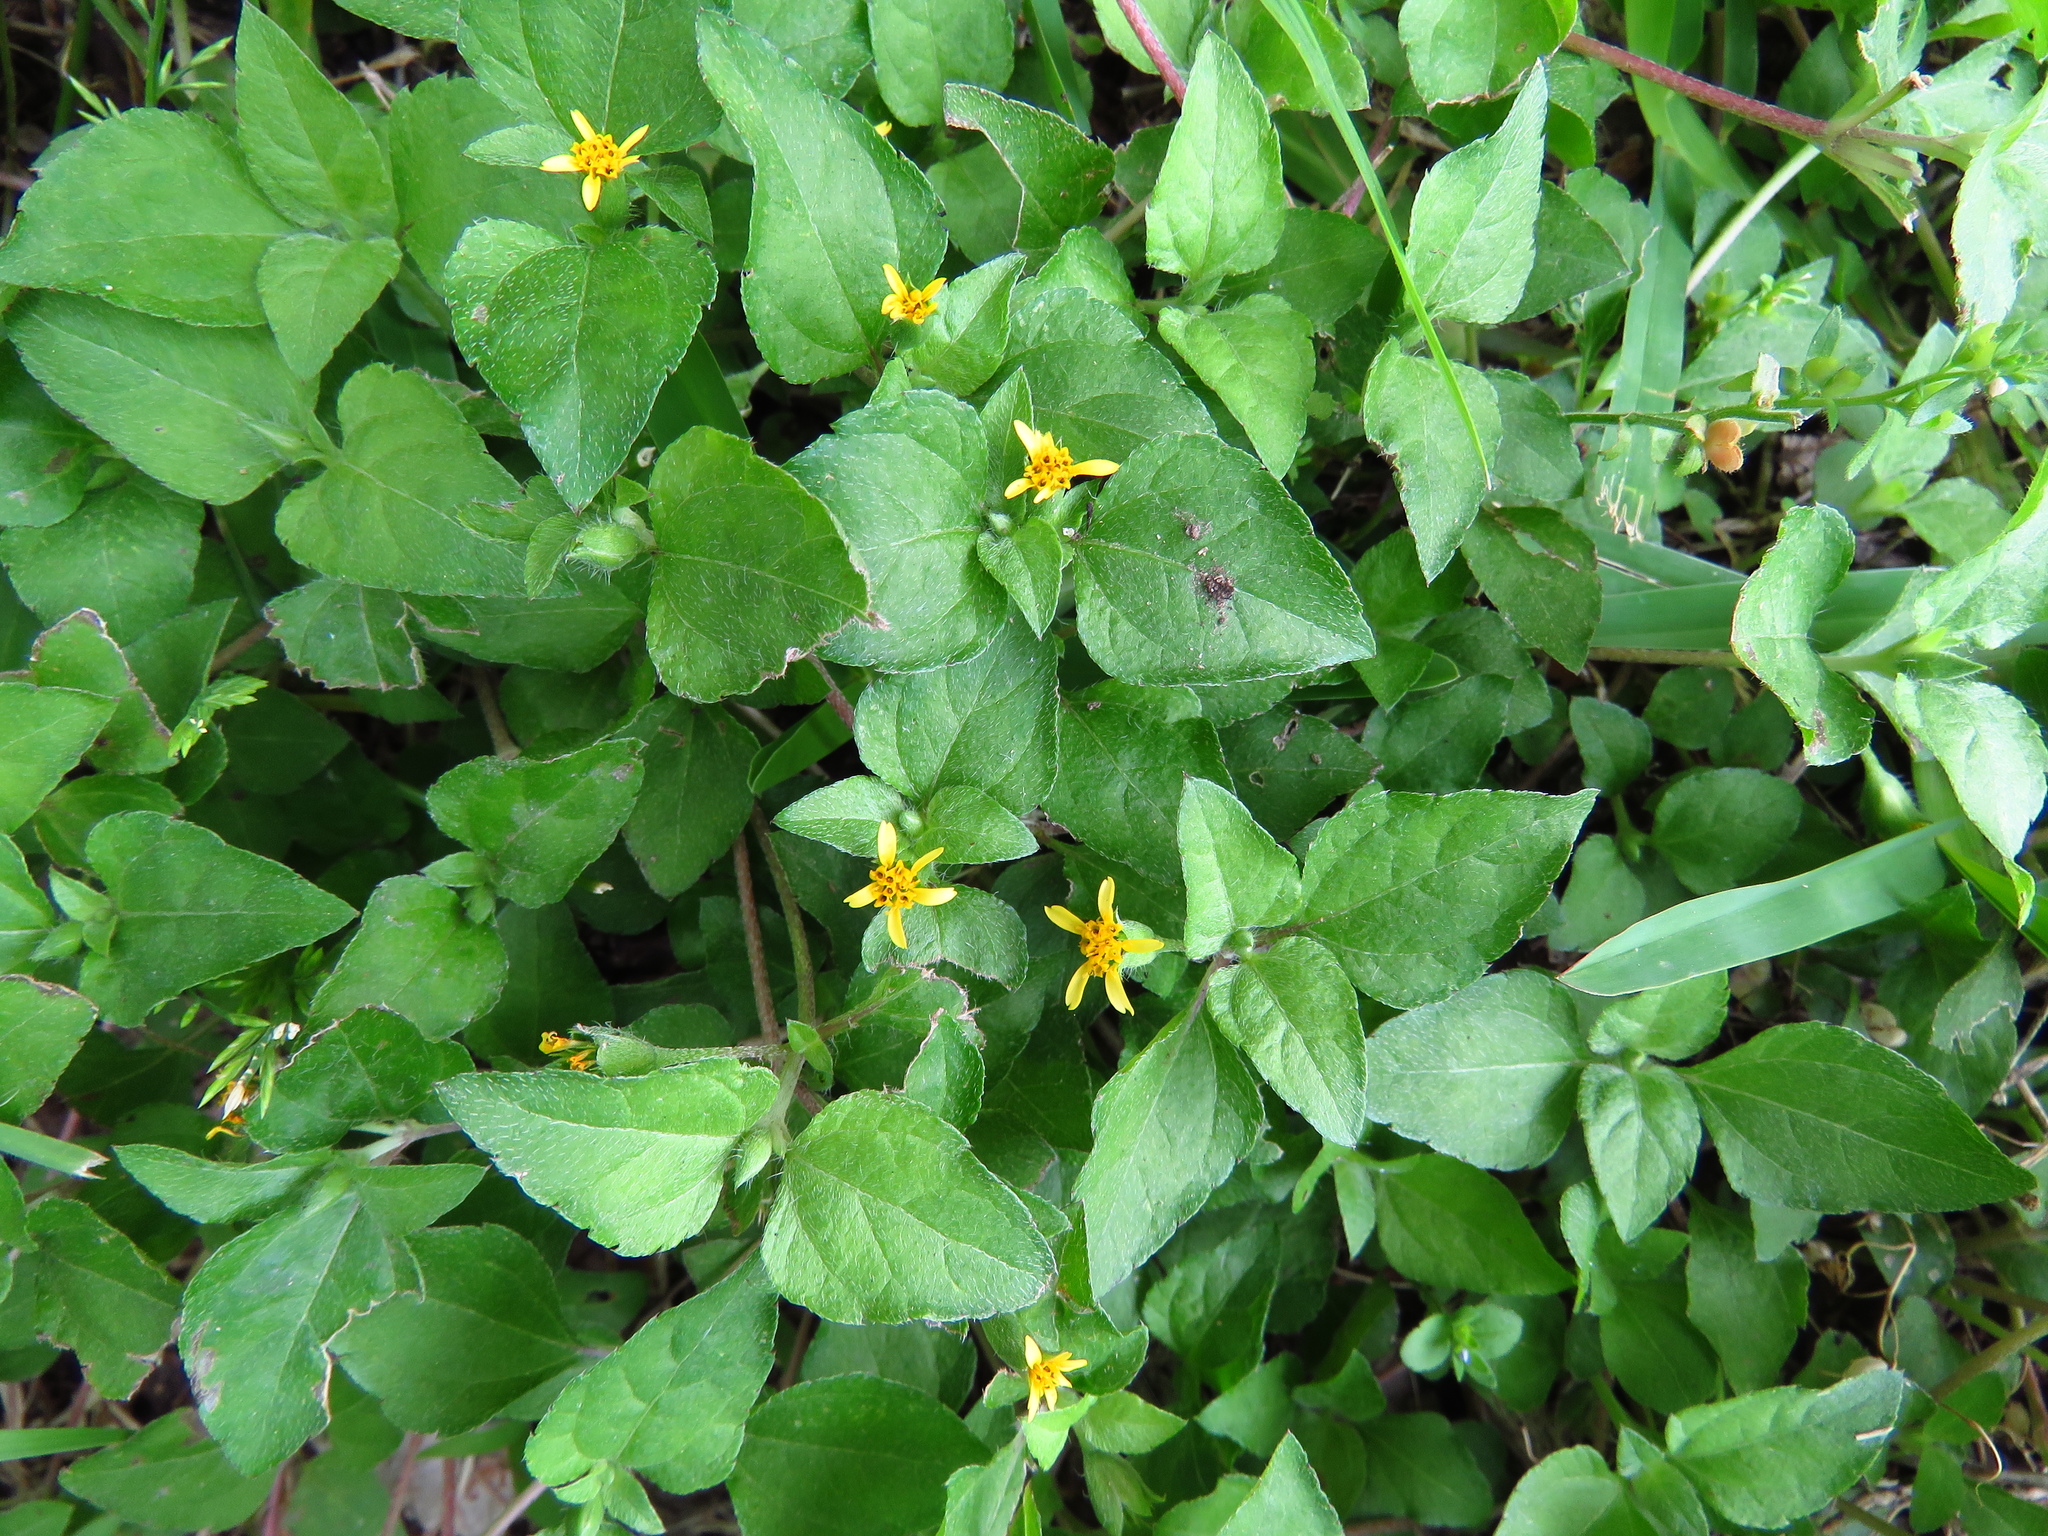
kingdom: Plantae
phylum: Tracheophyta
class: Magnoliopsida
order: Asterales
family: Asteraceae
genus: Calyptocarpus
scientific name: Calyptocarpus vialis
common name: Straggler daisy
